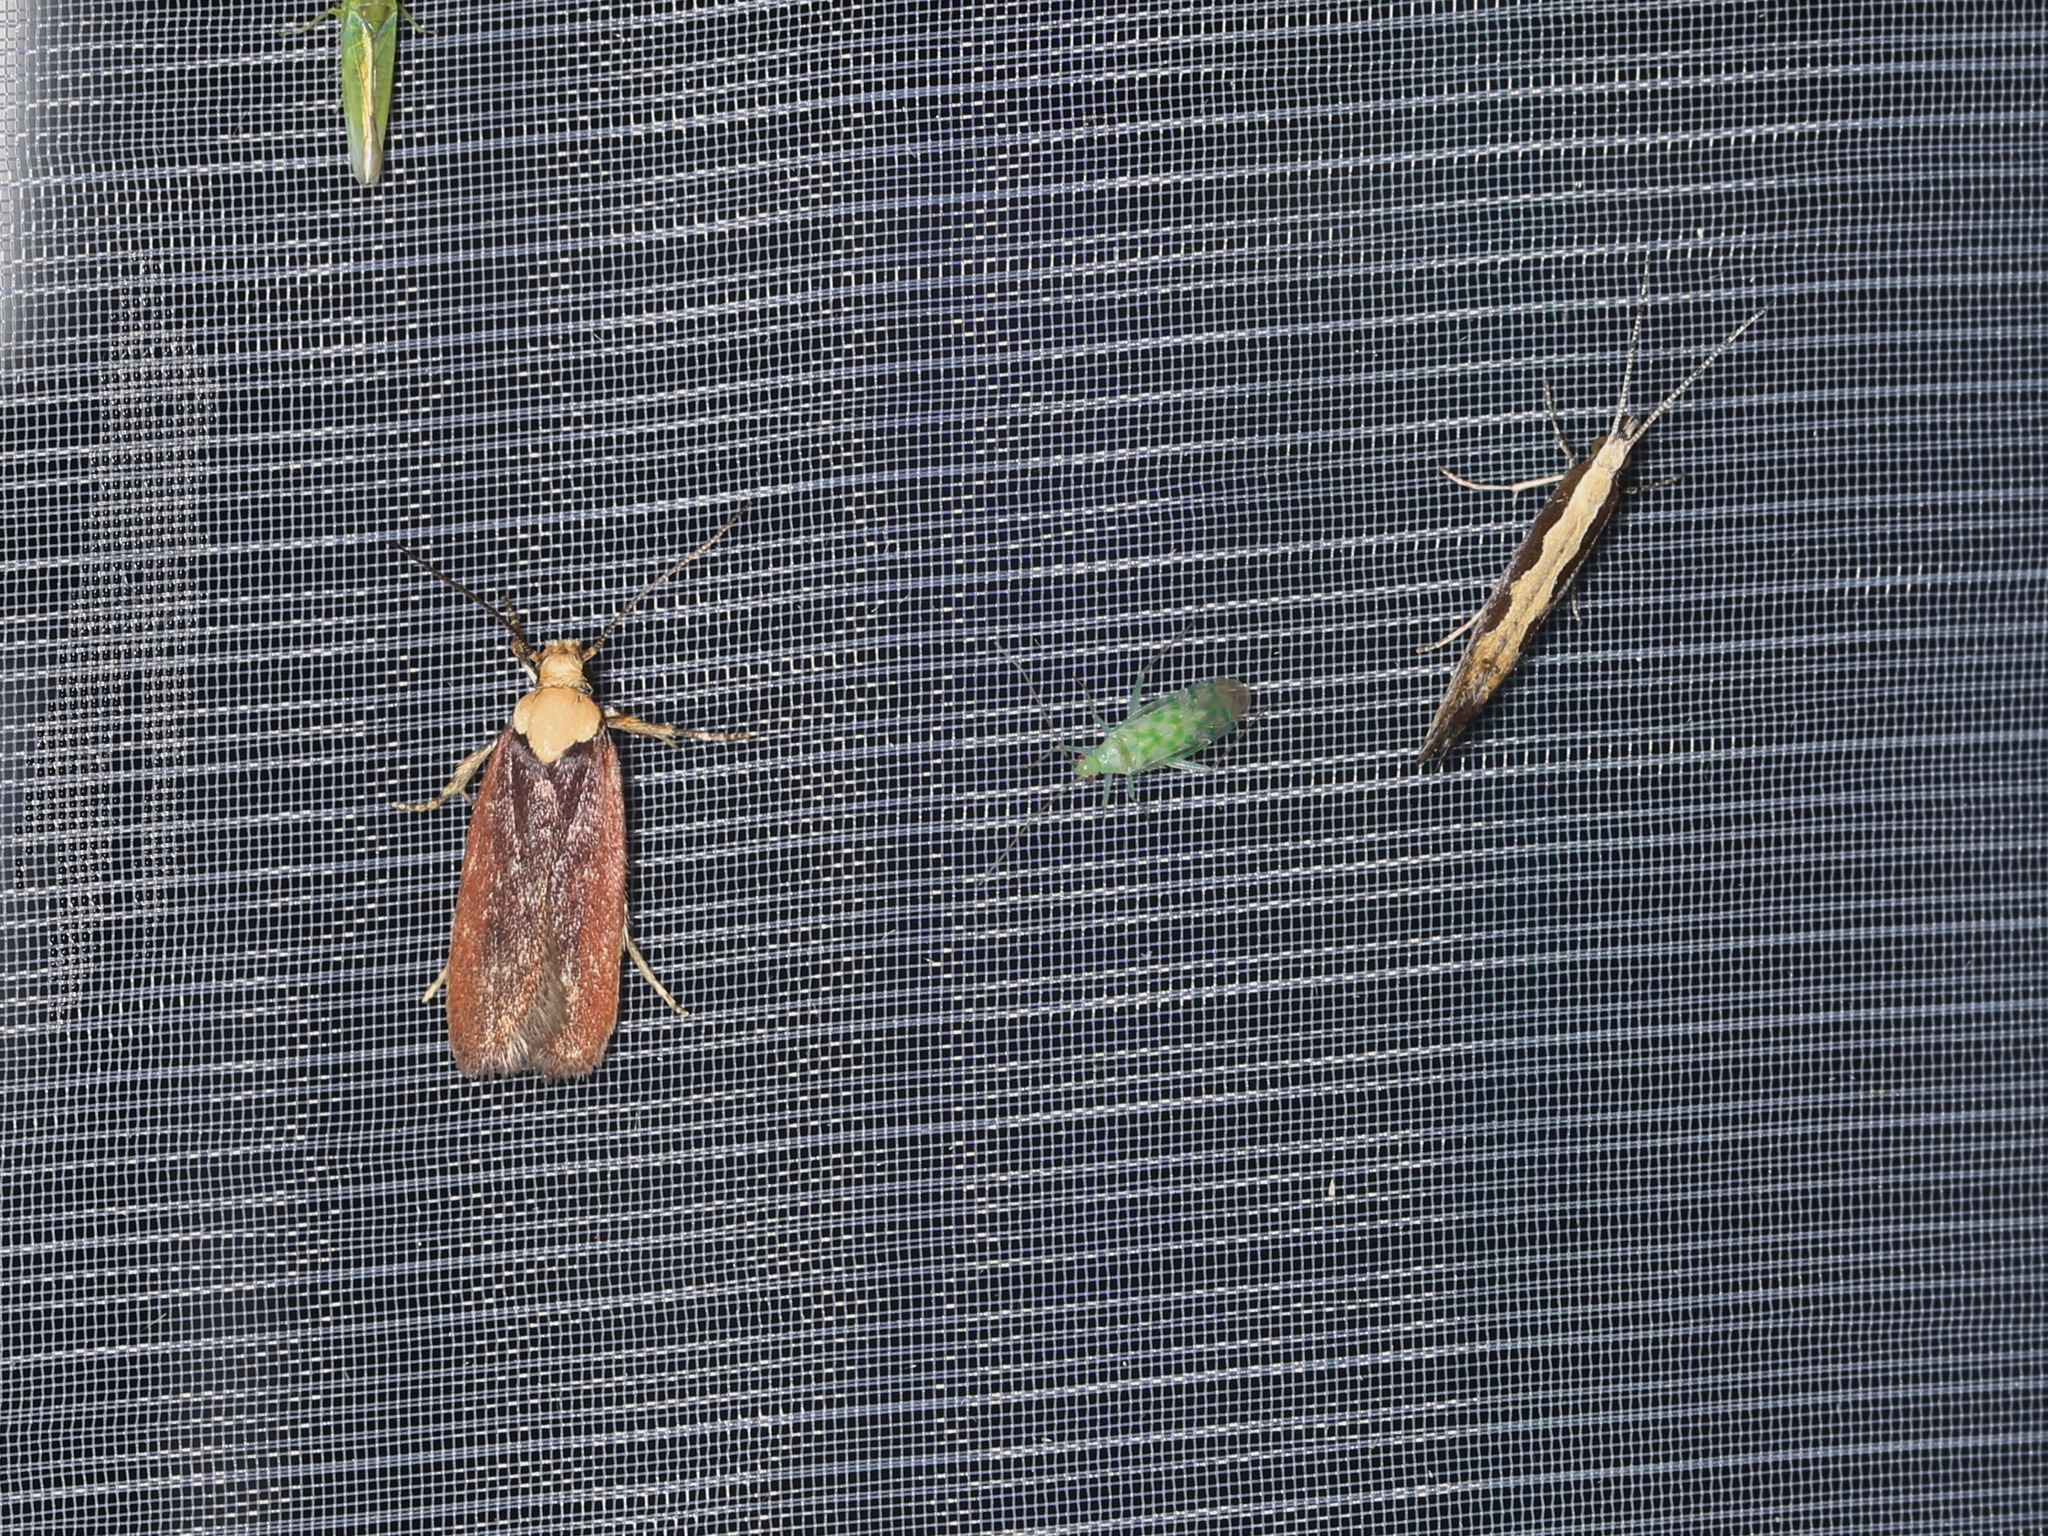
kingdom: Animalia
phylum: Arthropoda
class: Insecta
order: Lepidoptera
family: Depressariidae
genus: Depressaria
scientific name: Depressaria depressana
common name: Lost flat-body
